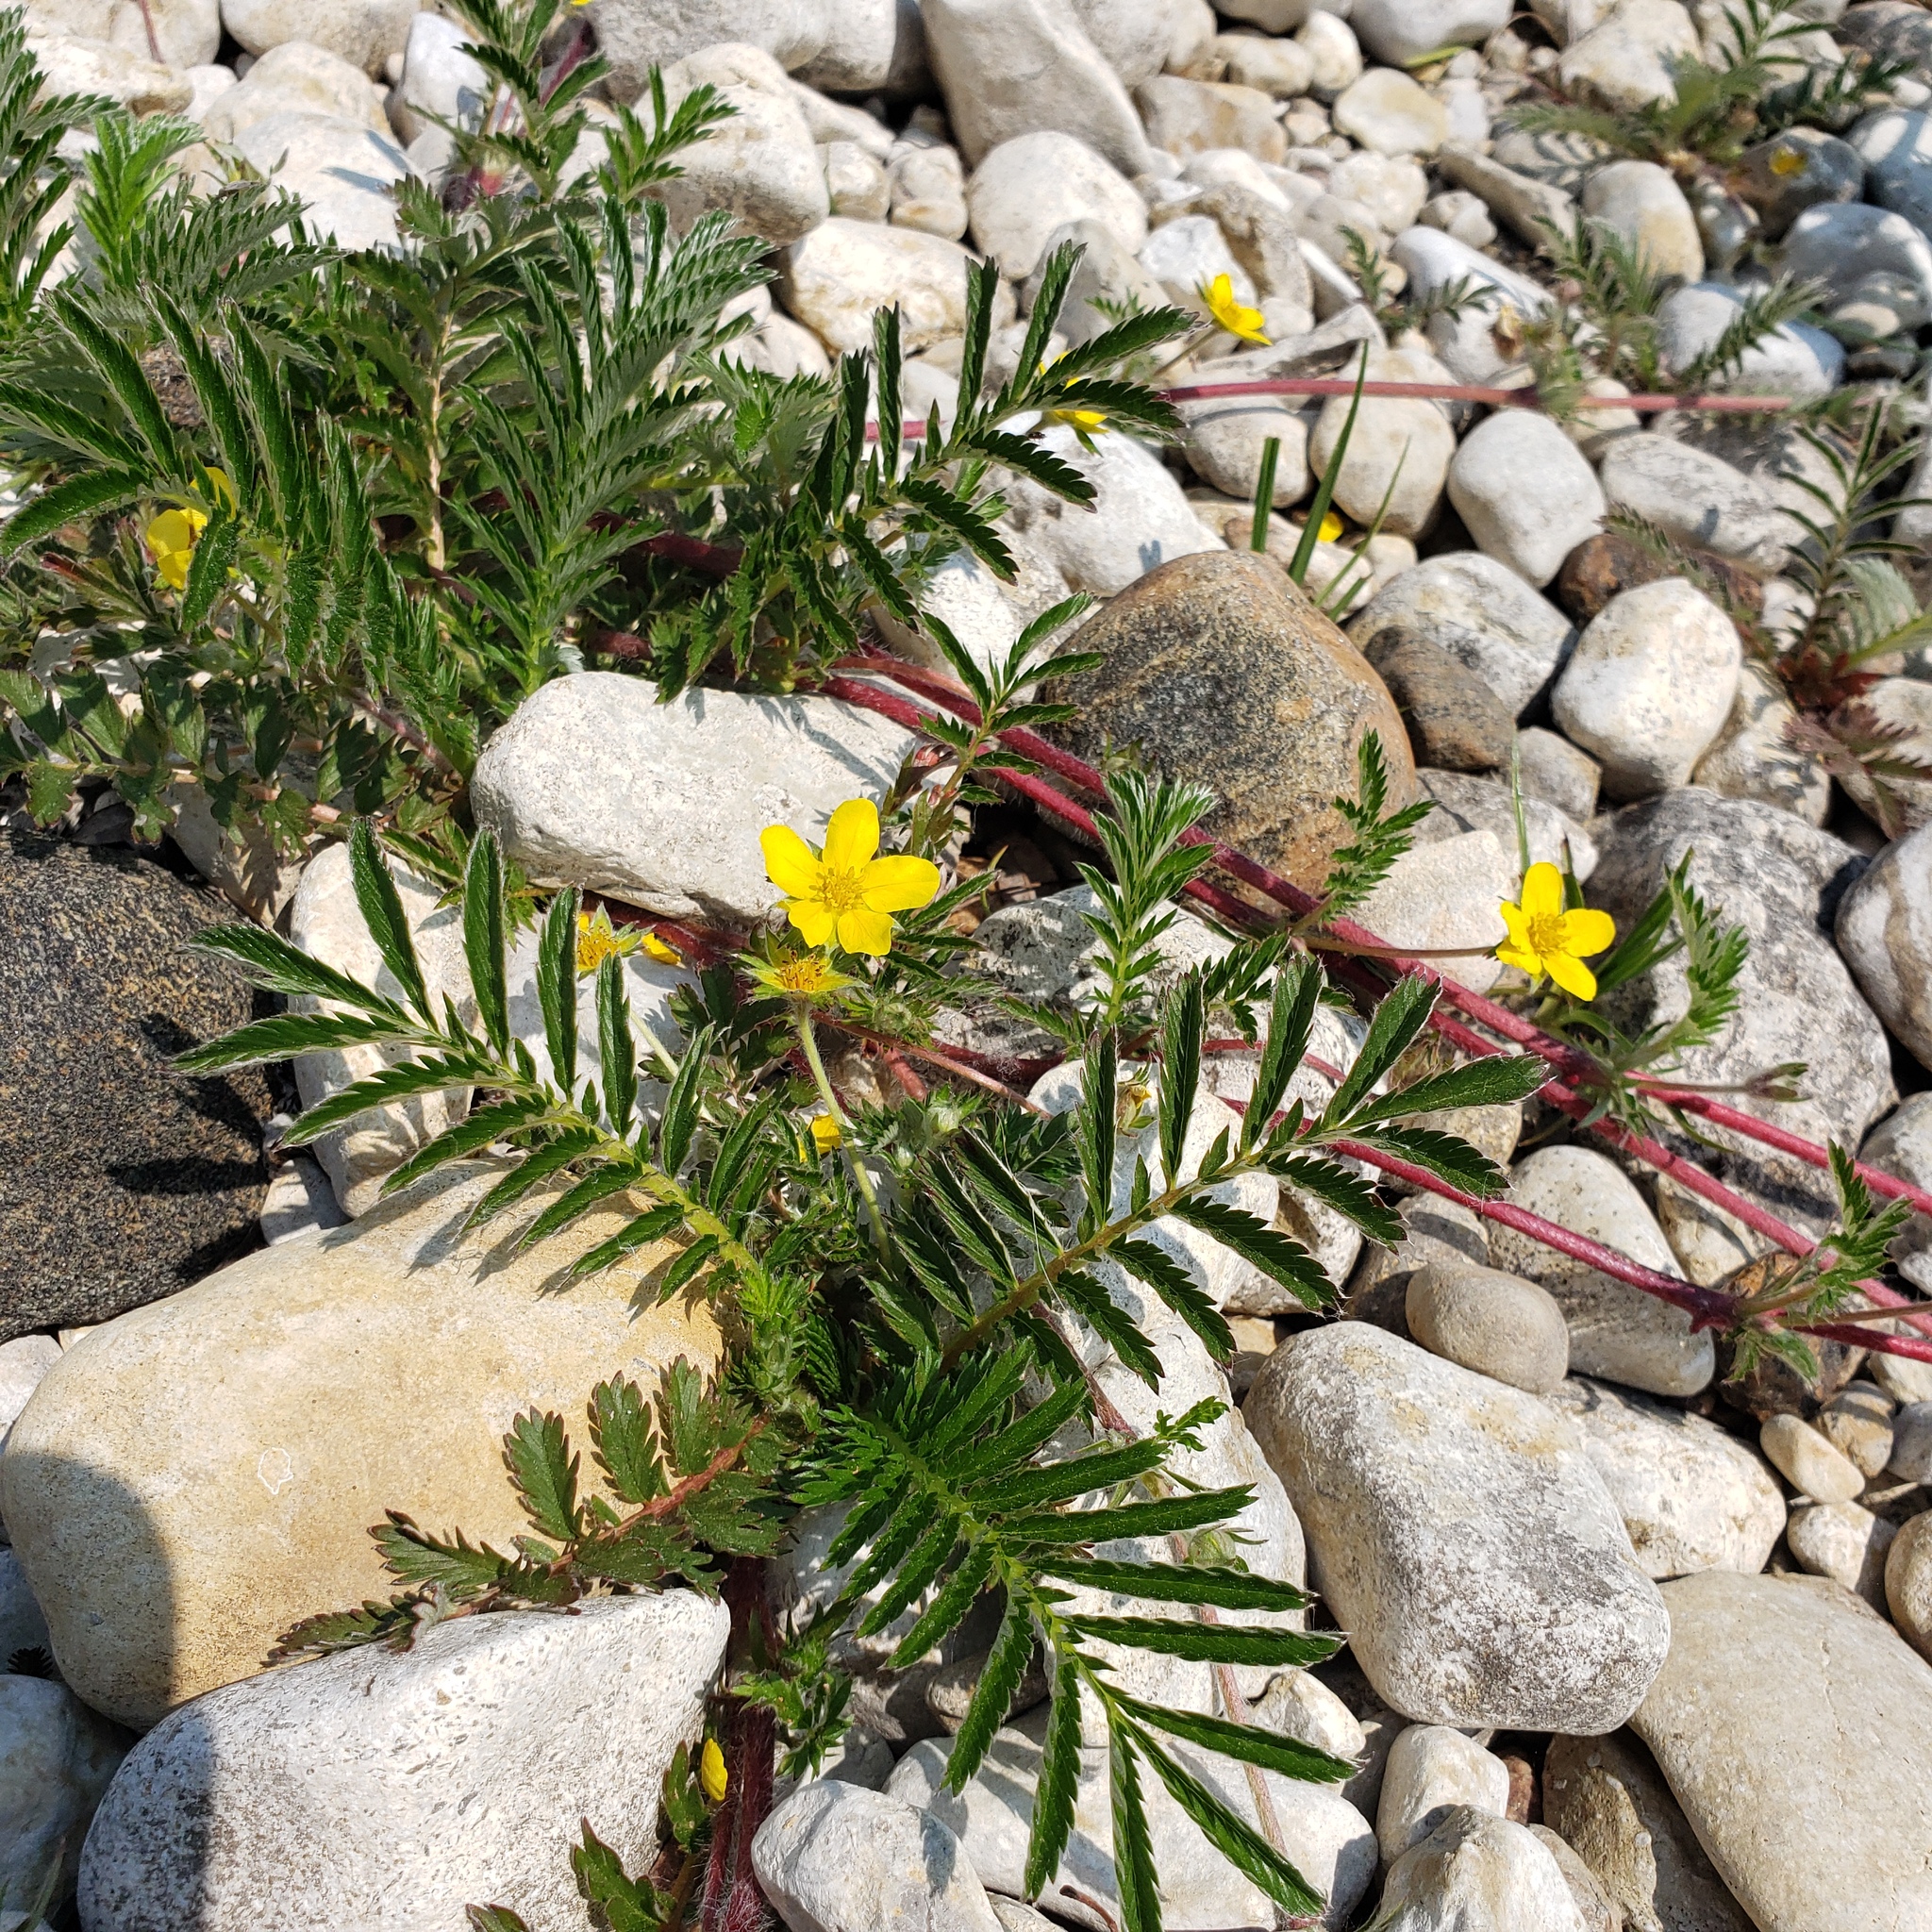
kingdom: Plantae
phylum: Tracheophyta
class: Magnoliopsida
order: Rosales
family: Rosaceae
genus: Argentina
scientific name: Argentina anserina
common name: Common silverweed
